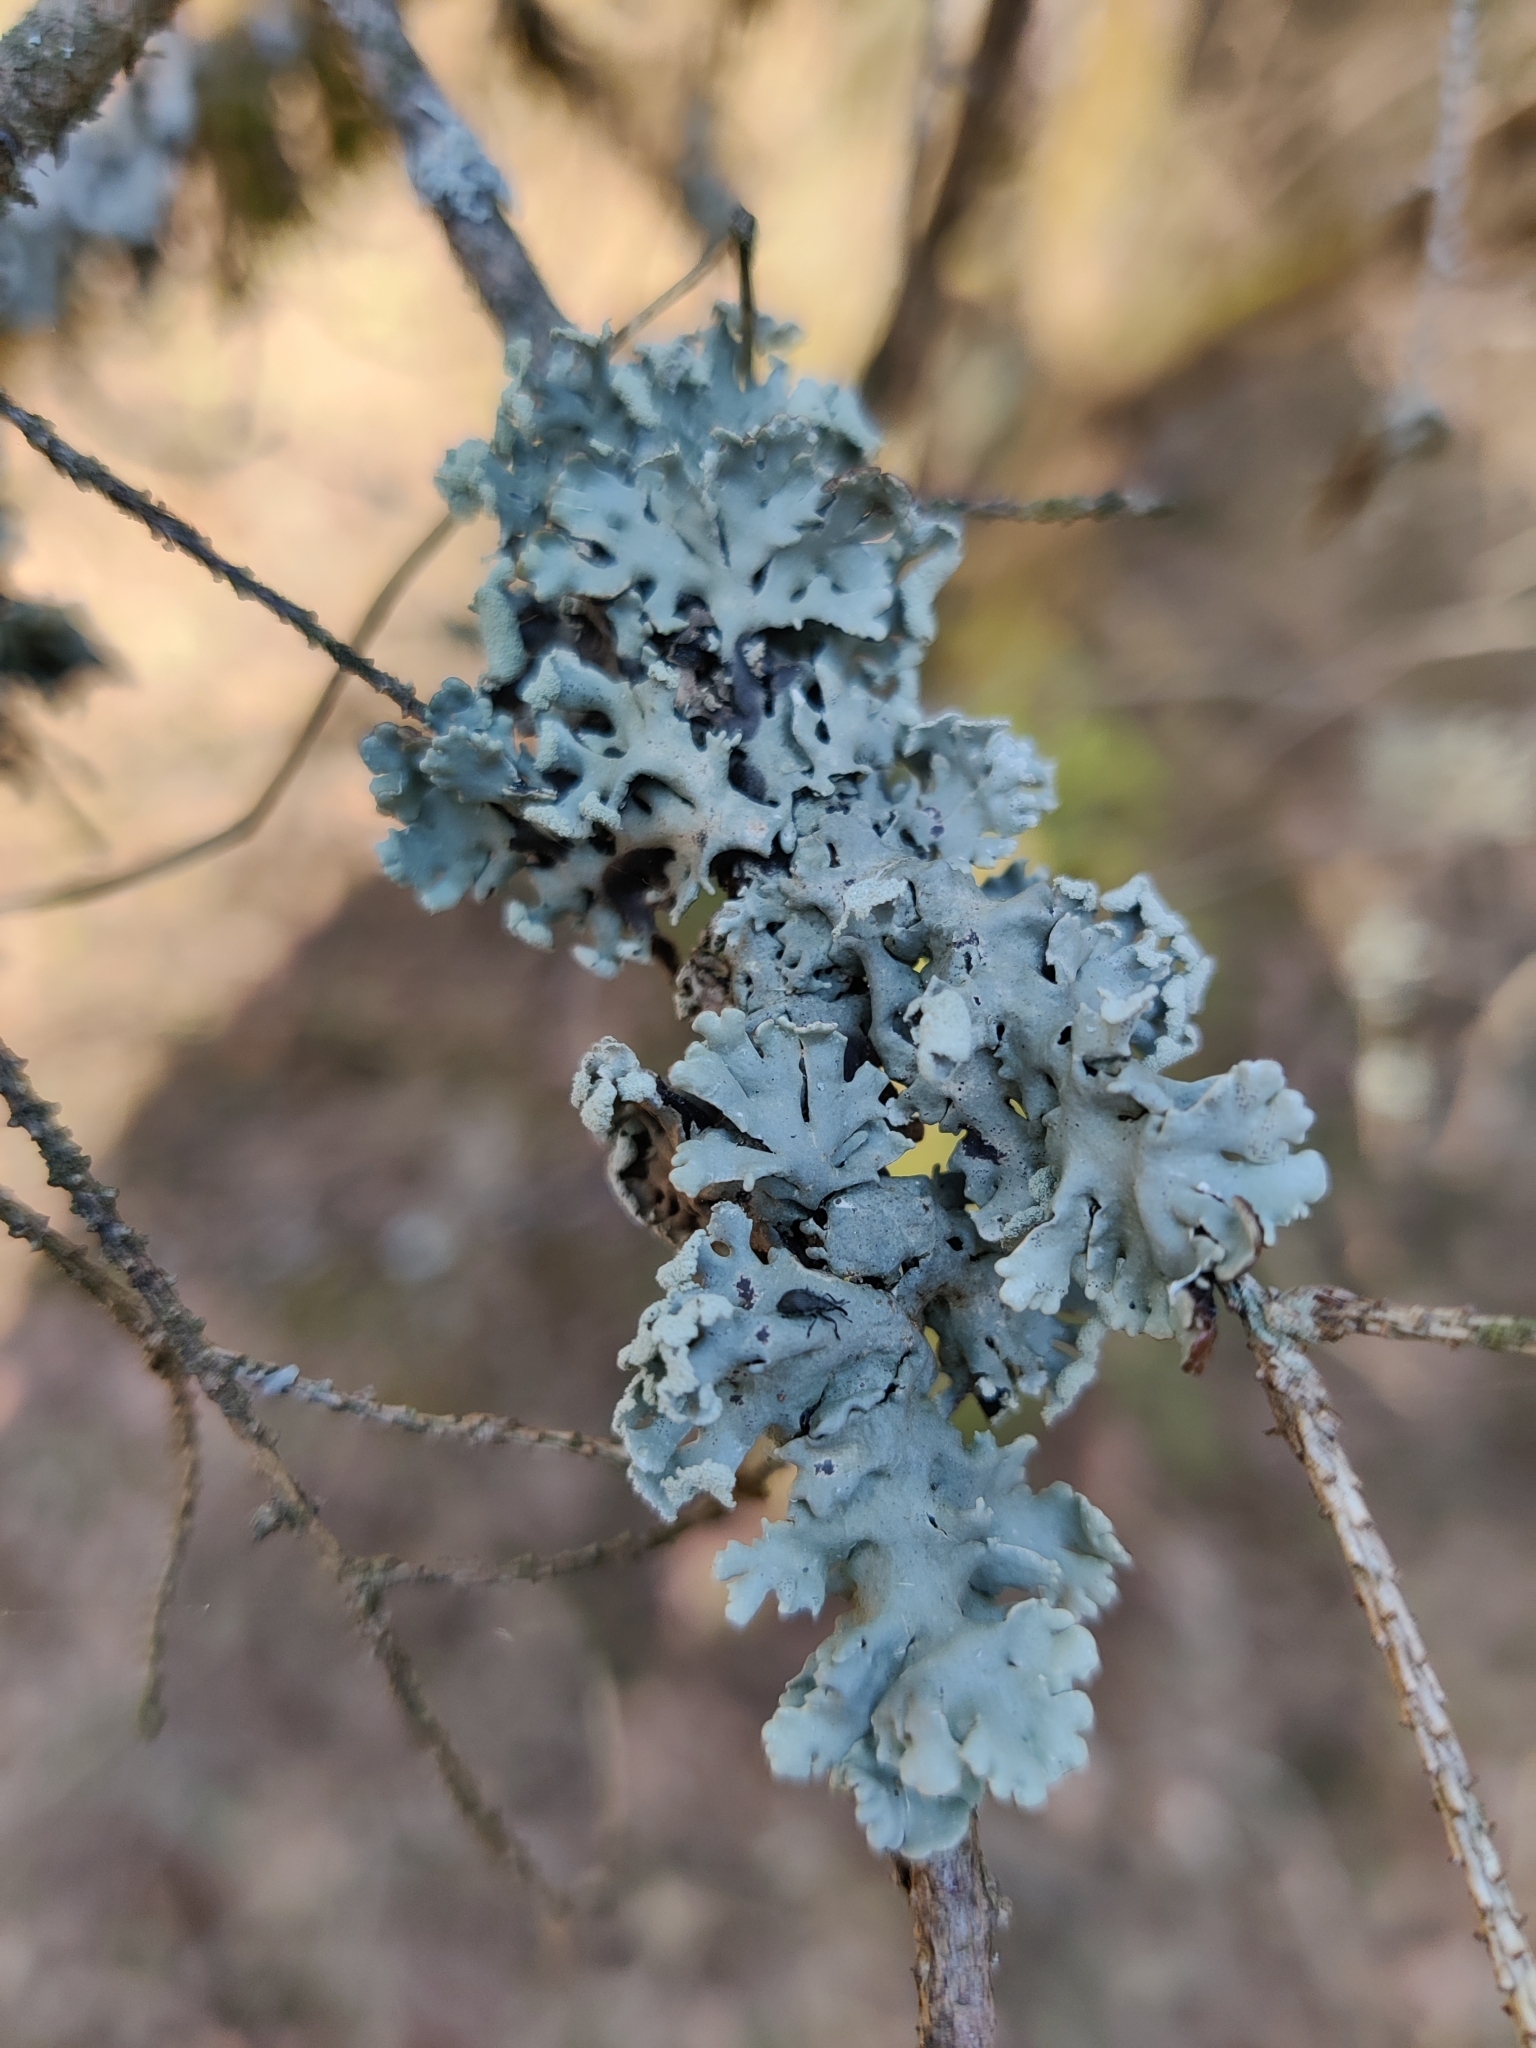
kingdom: Fungi
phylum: Ascomycota
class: Lecanoromycetes
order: Lecanorales
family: Parmeliaceae
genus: Hypogymnia
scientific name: Hypogymnia physodes
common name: Dark crottle
